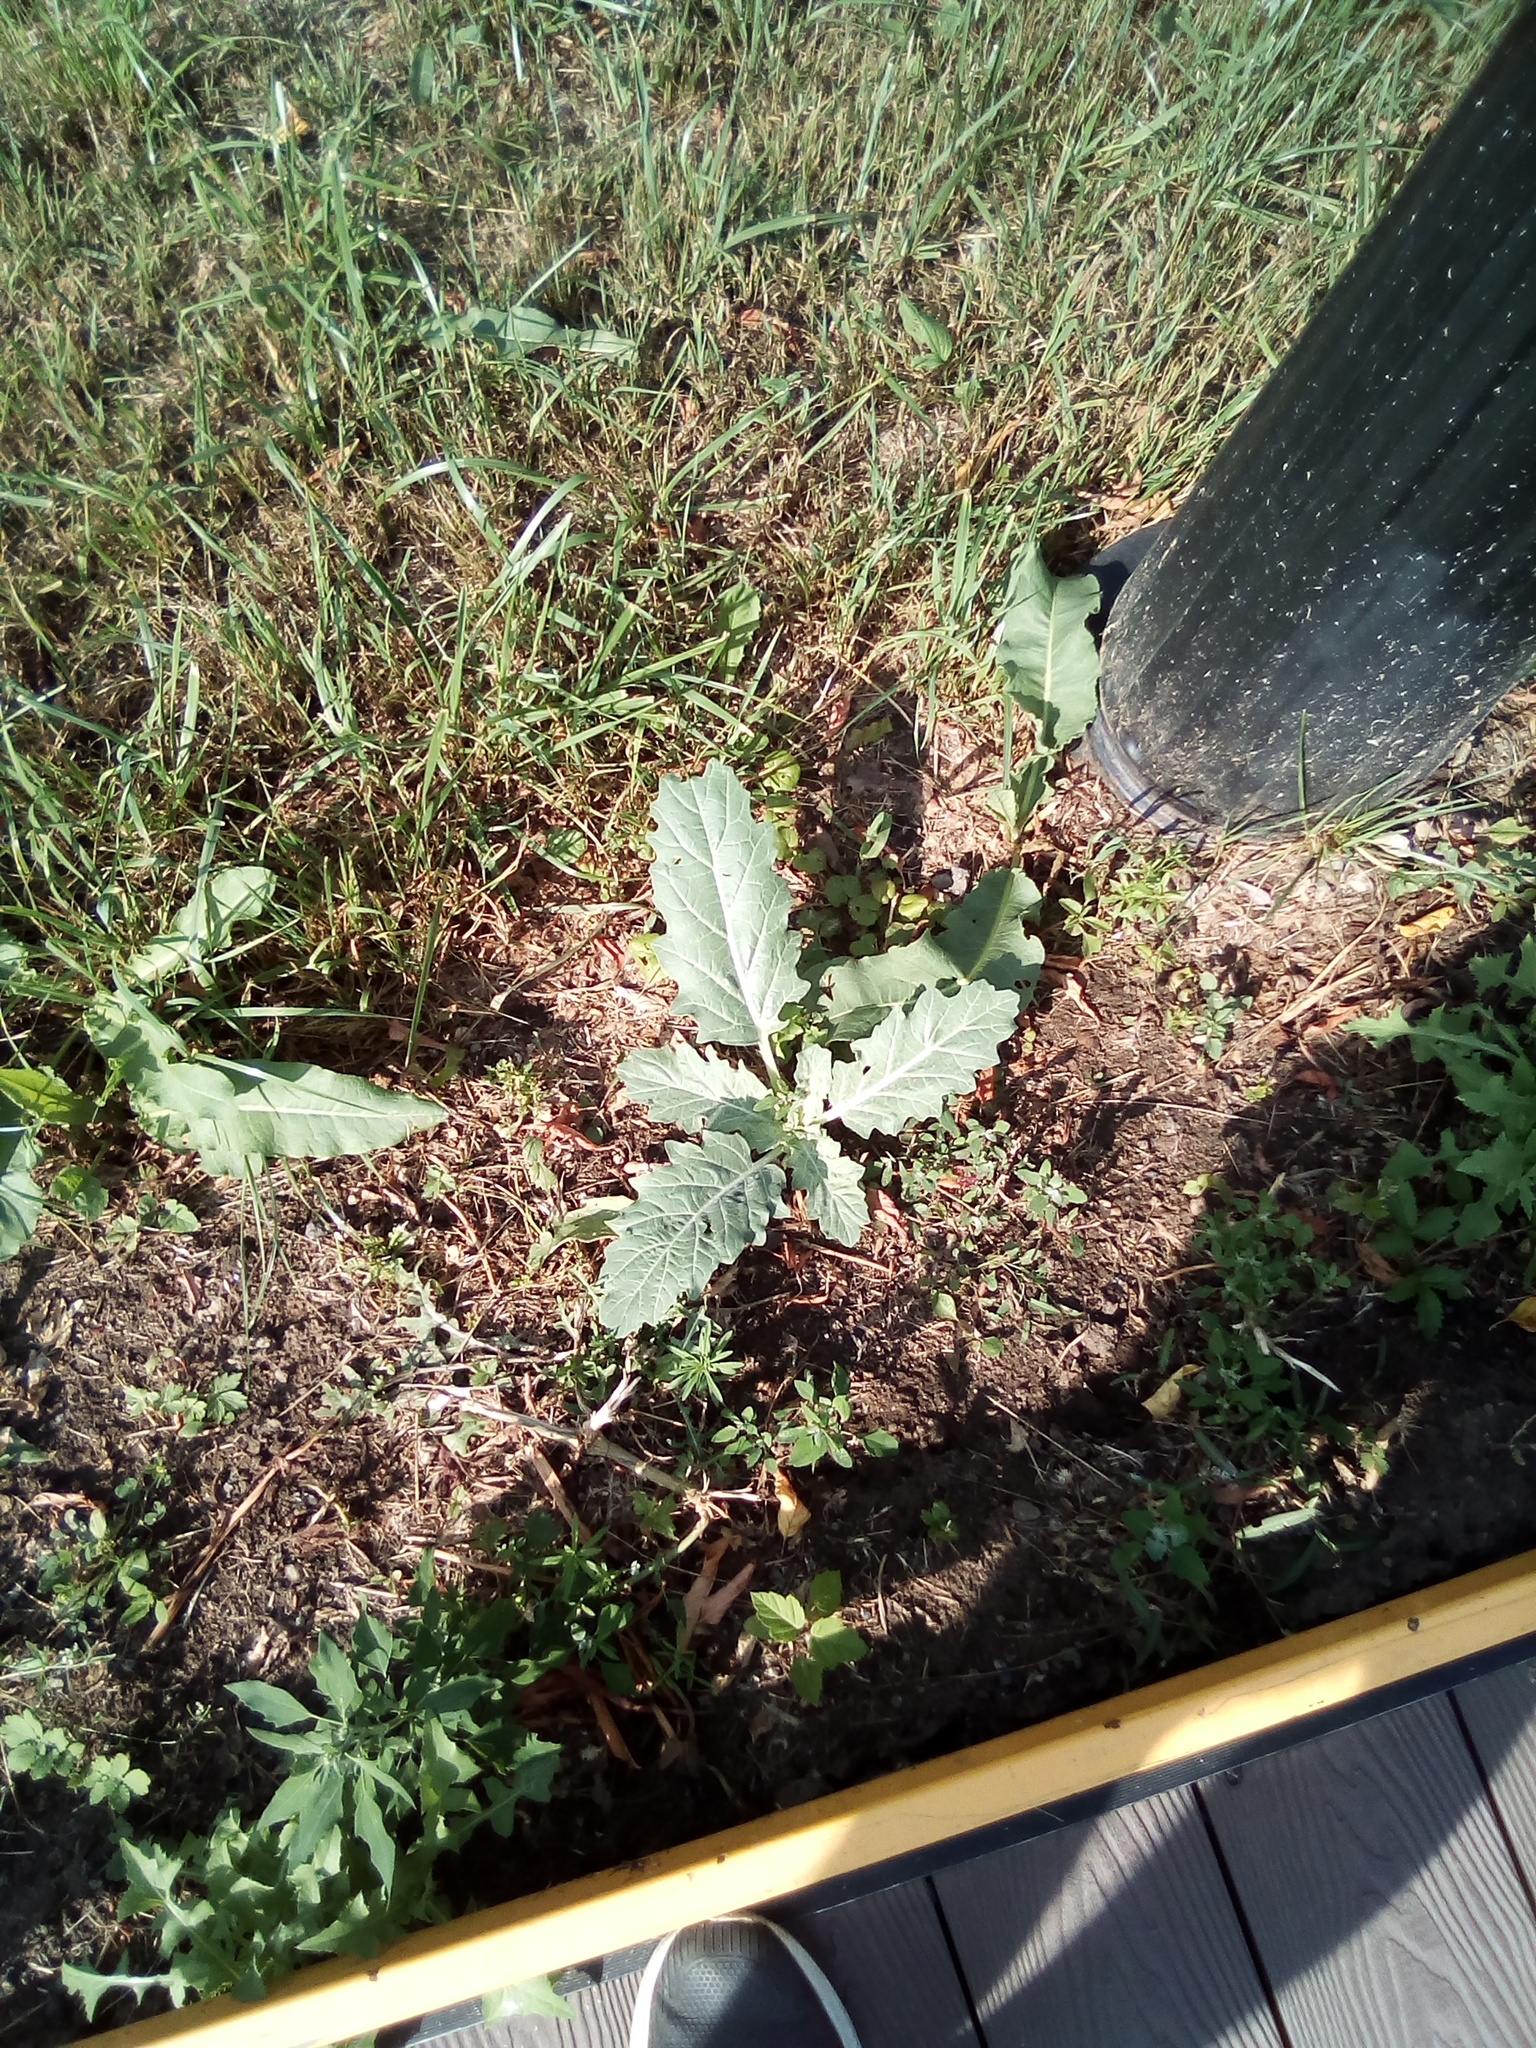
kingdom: Plantae
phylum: Tracheophyta
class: Magnoliopsida
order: Solanales
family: Solanaceae
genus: Hyoscyamus
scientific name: Hyoscyamus niger
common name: Henbane
